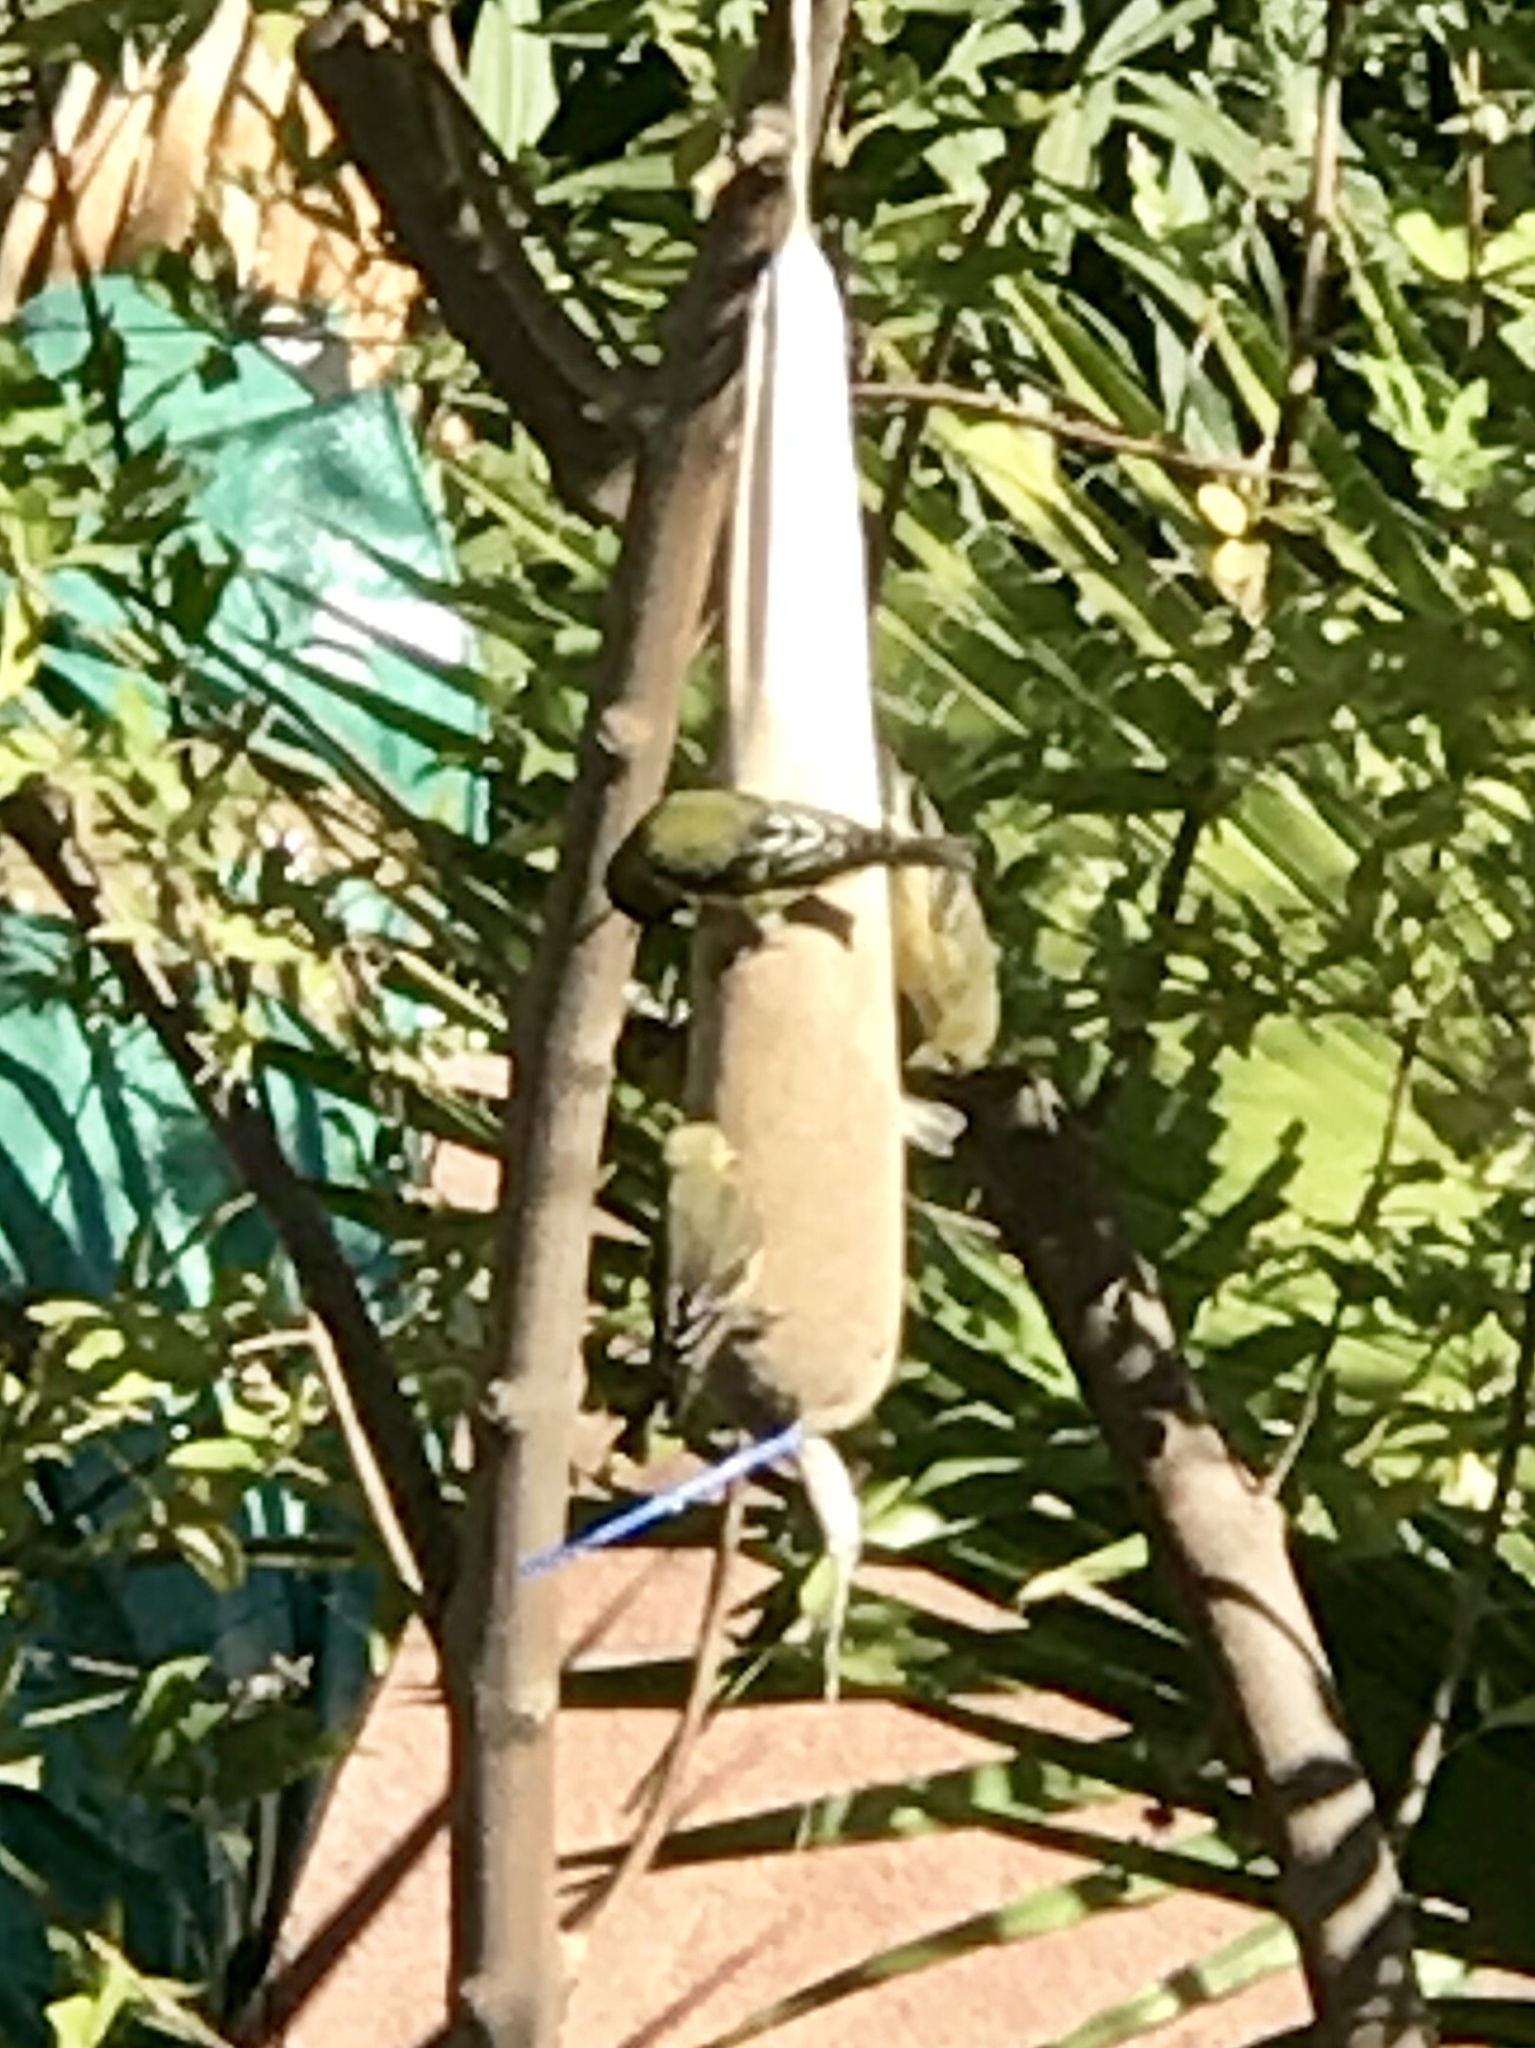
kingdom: Animalia
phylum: Chordata
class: Aves
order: Passeriformes
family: Fringillidae
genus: Spinus
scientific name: Spinus psaltria
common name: Lesser goldfinch
